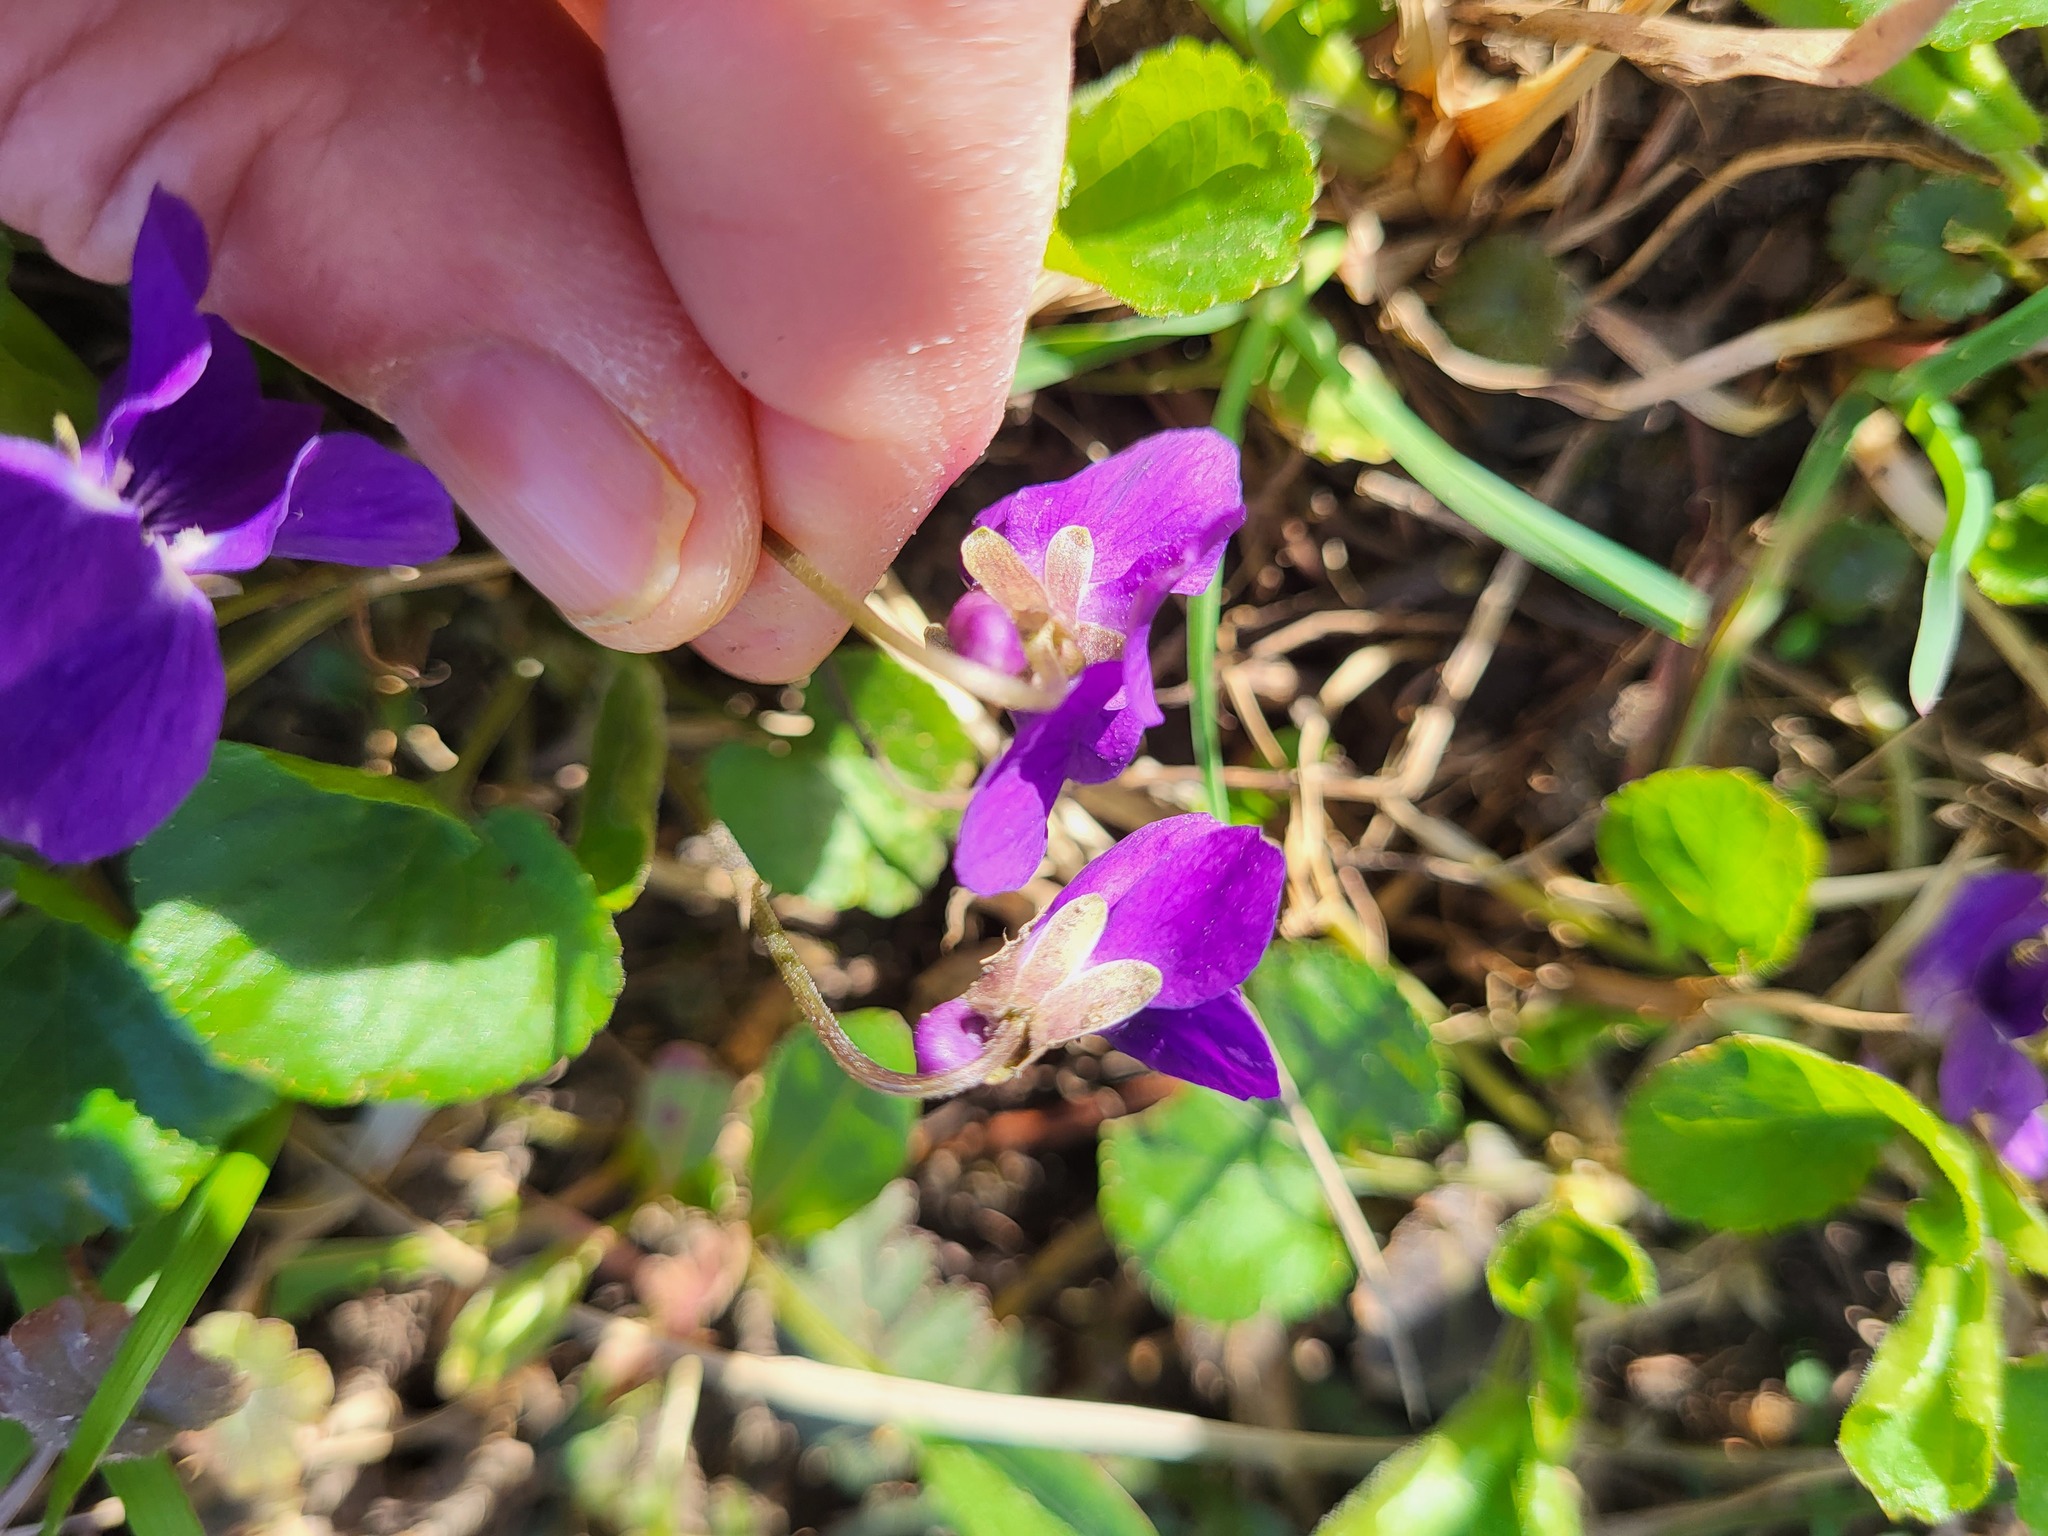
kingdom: Plantae
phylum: Tracheophyta
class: Magnoliopsida
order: Malpighiales
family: Violaceae
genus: Viola
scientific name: Viola odorata
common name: Sweet violet
